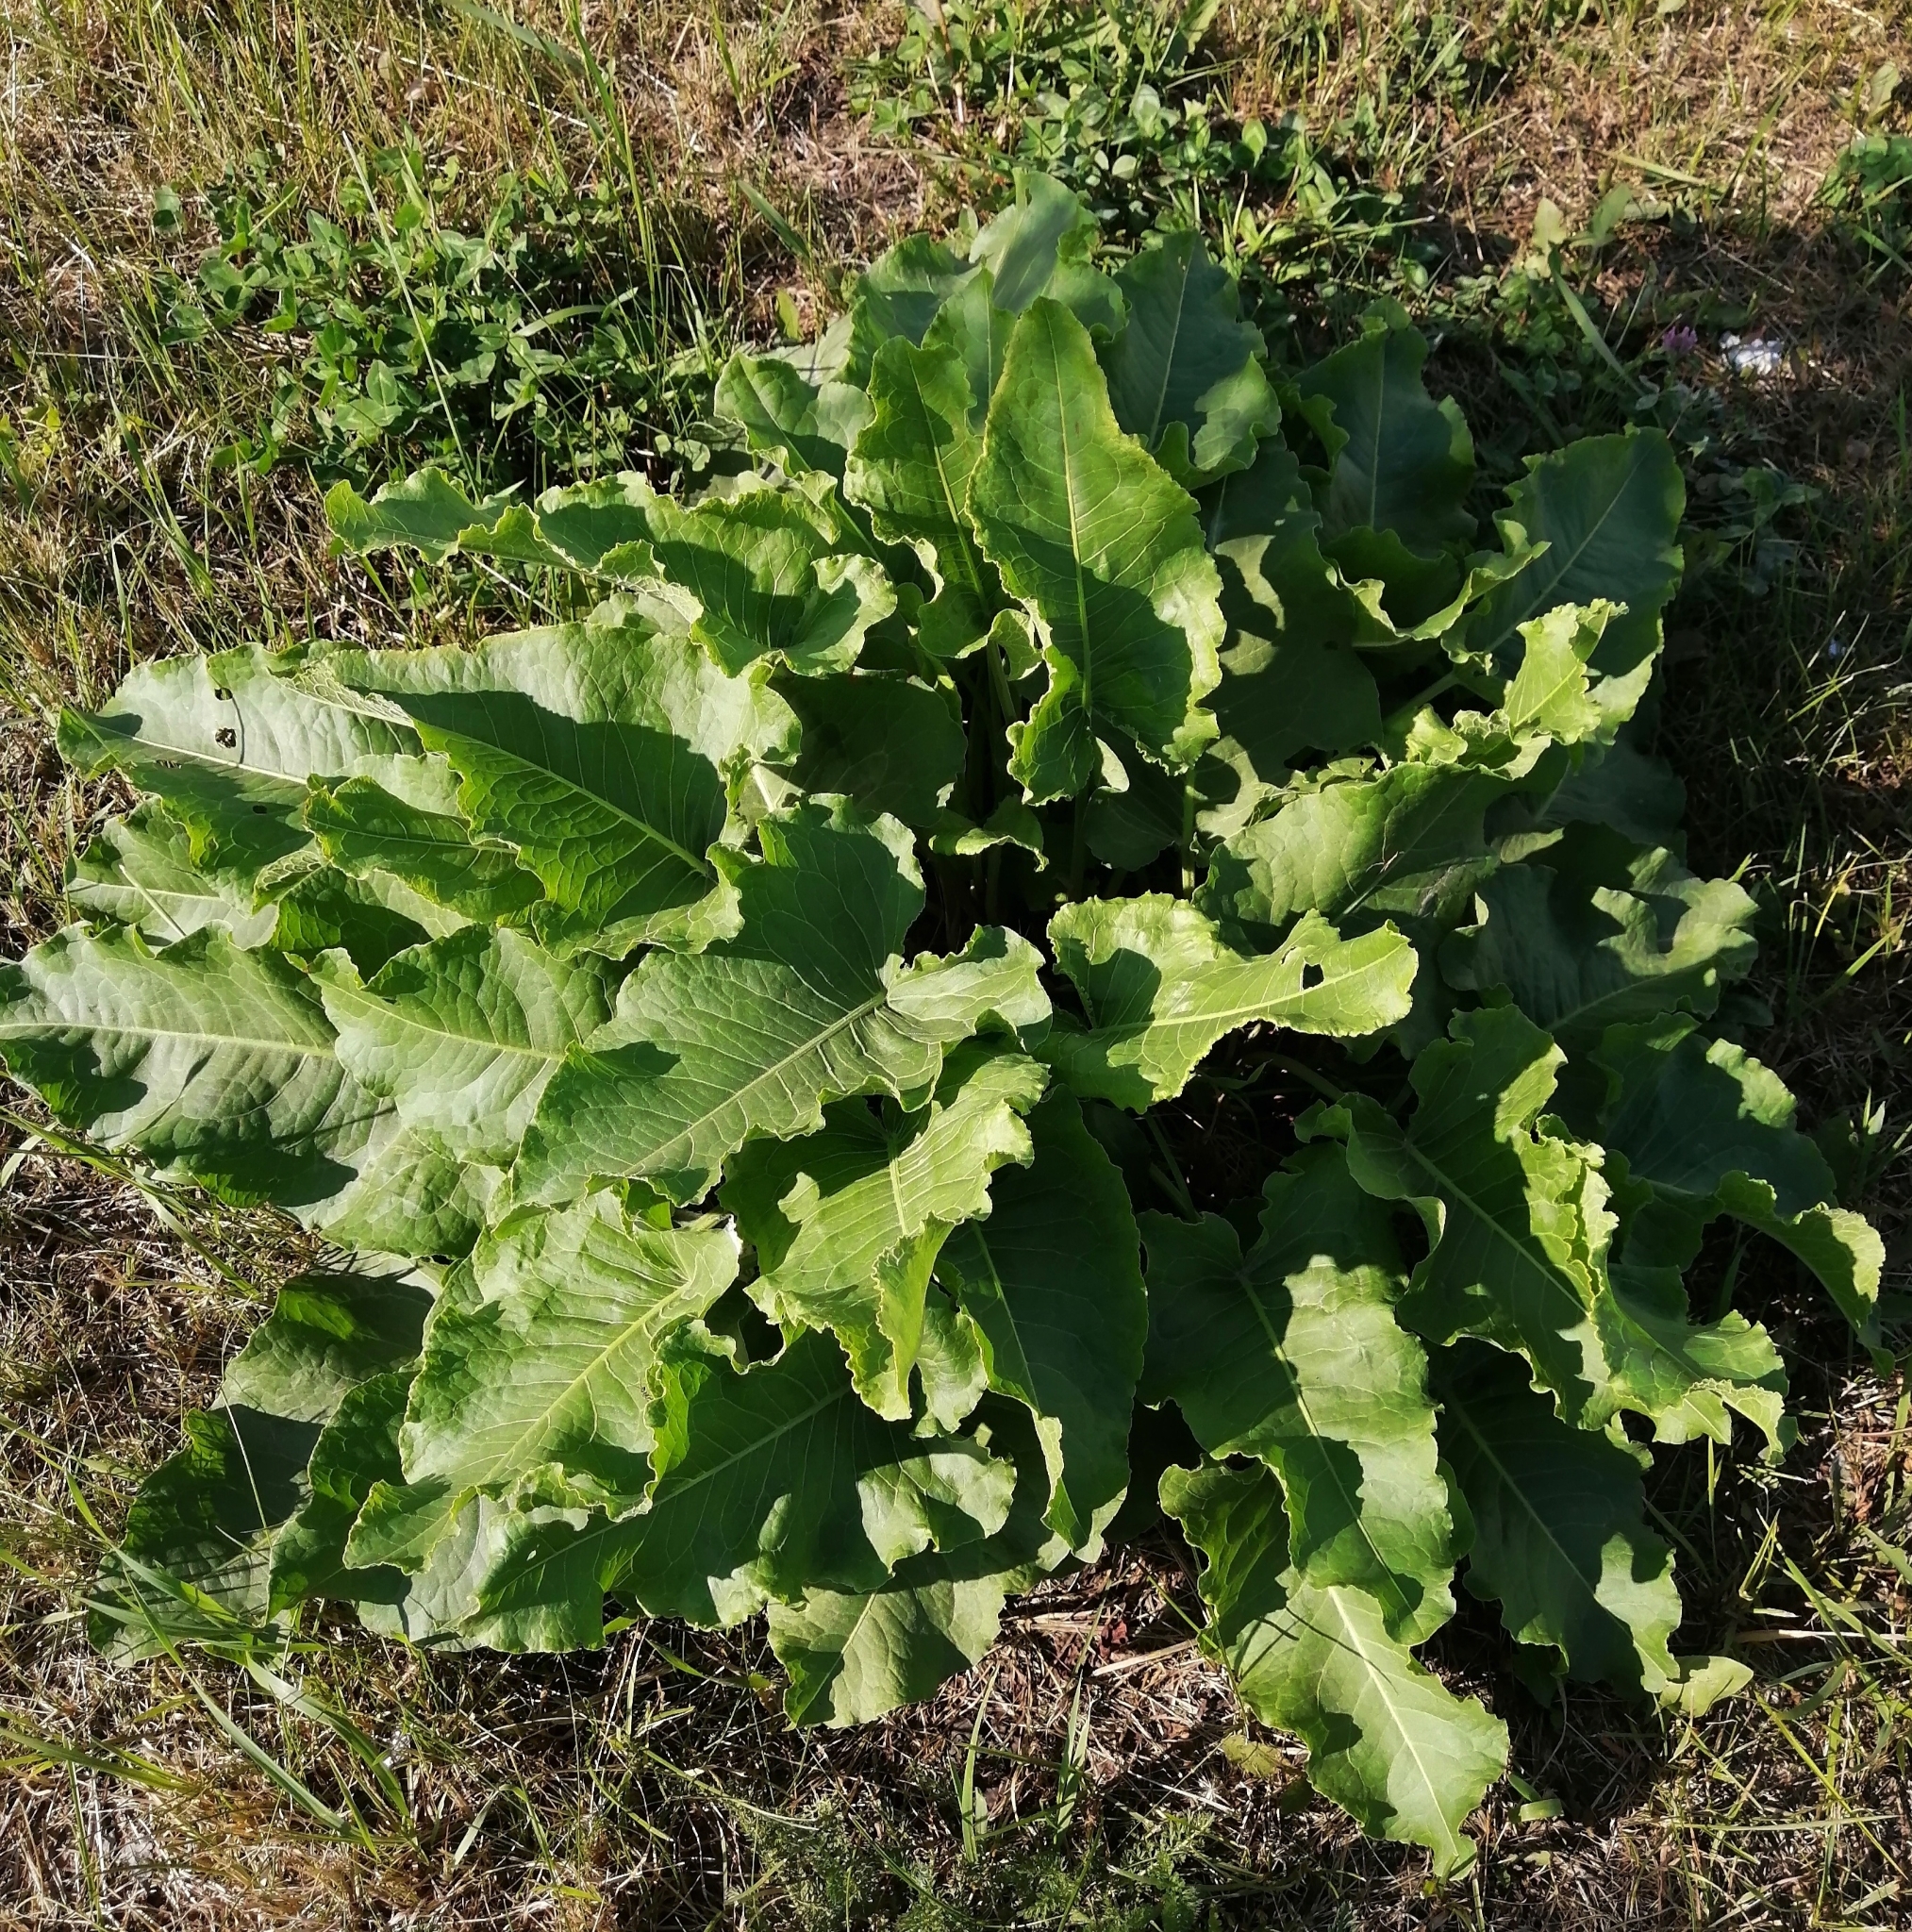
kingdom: Plantae
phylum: Tracheophyta
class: Magnoliopsida
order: Caryophyllales
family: Polygonaceae
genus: Rumex
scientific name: Rumex confertus
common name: Russian dock
